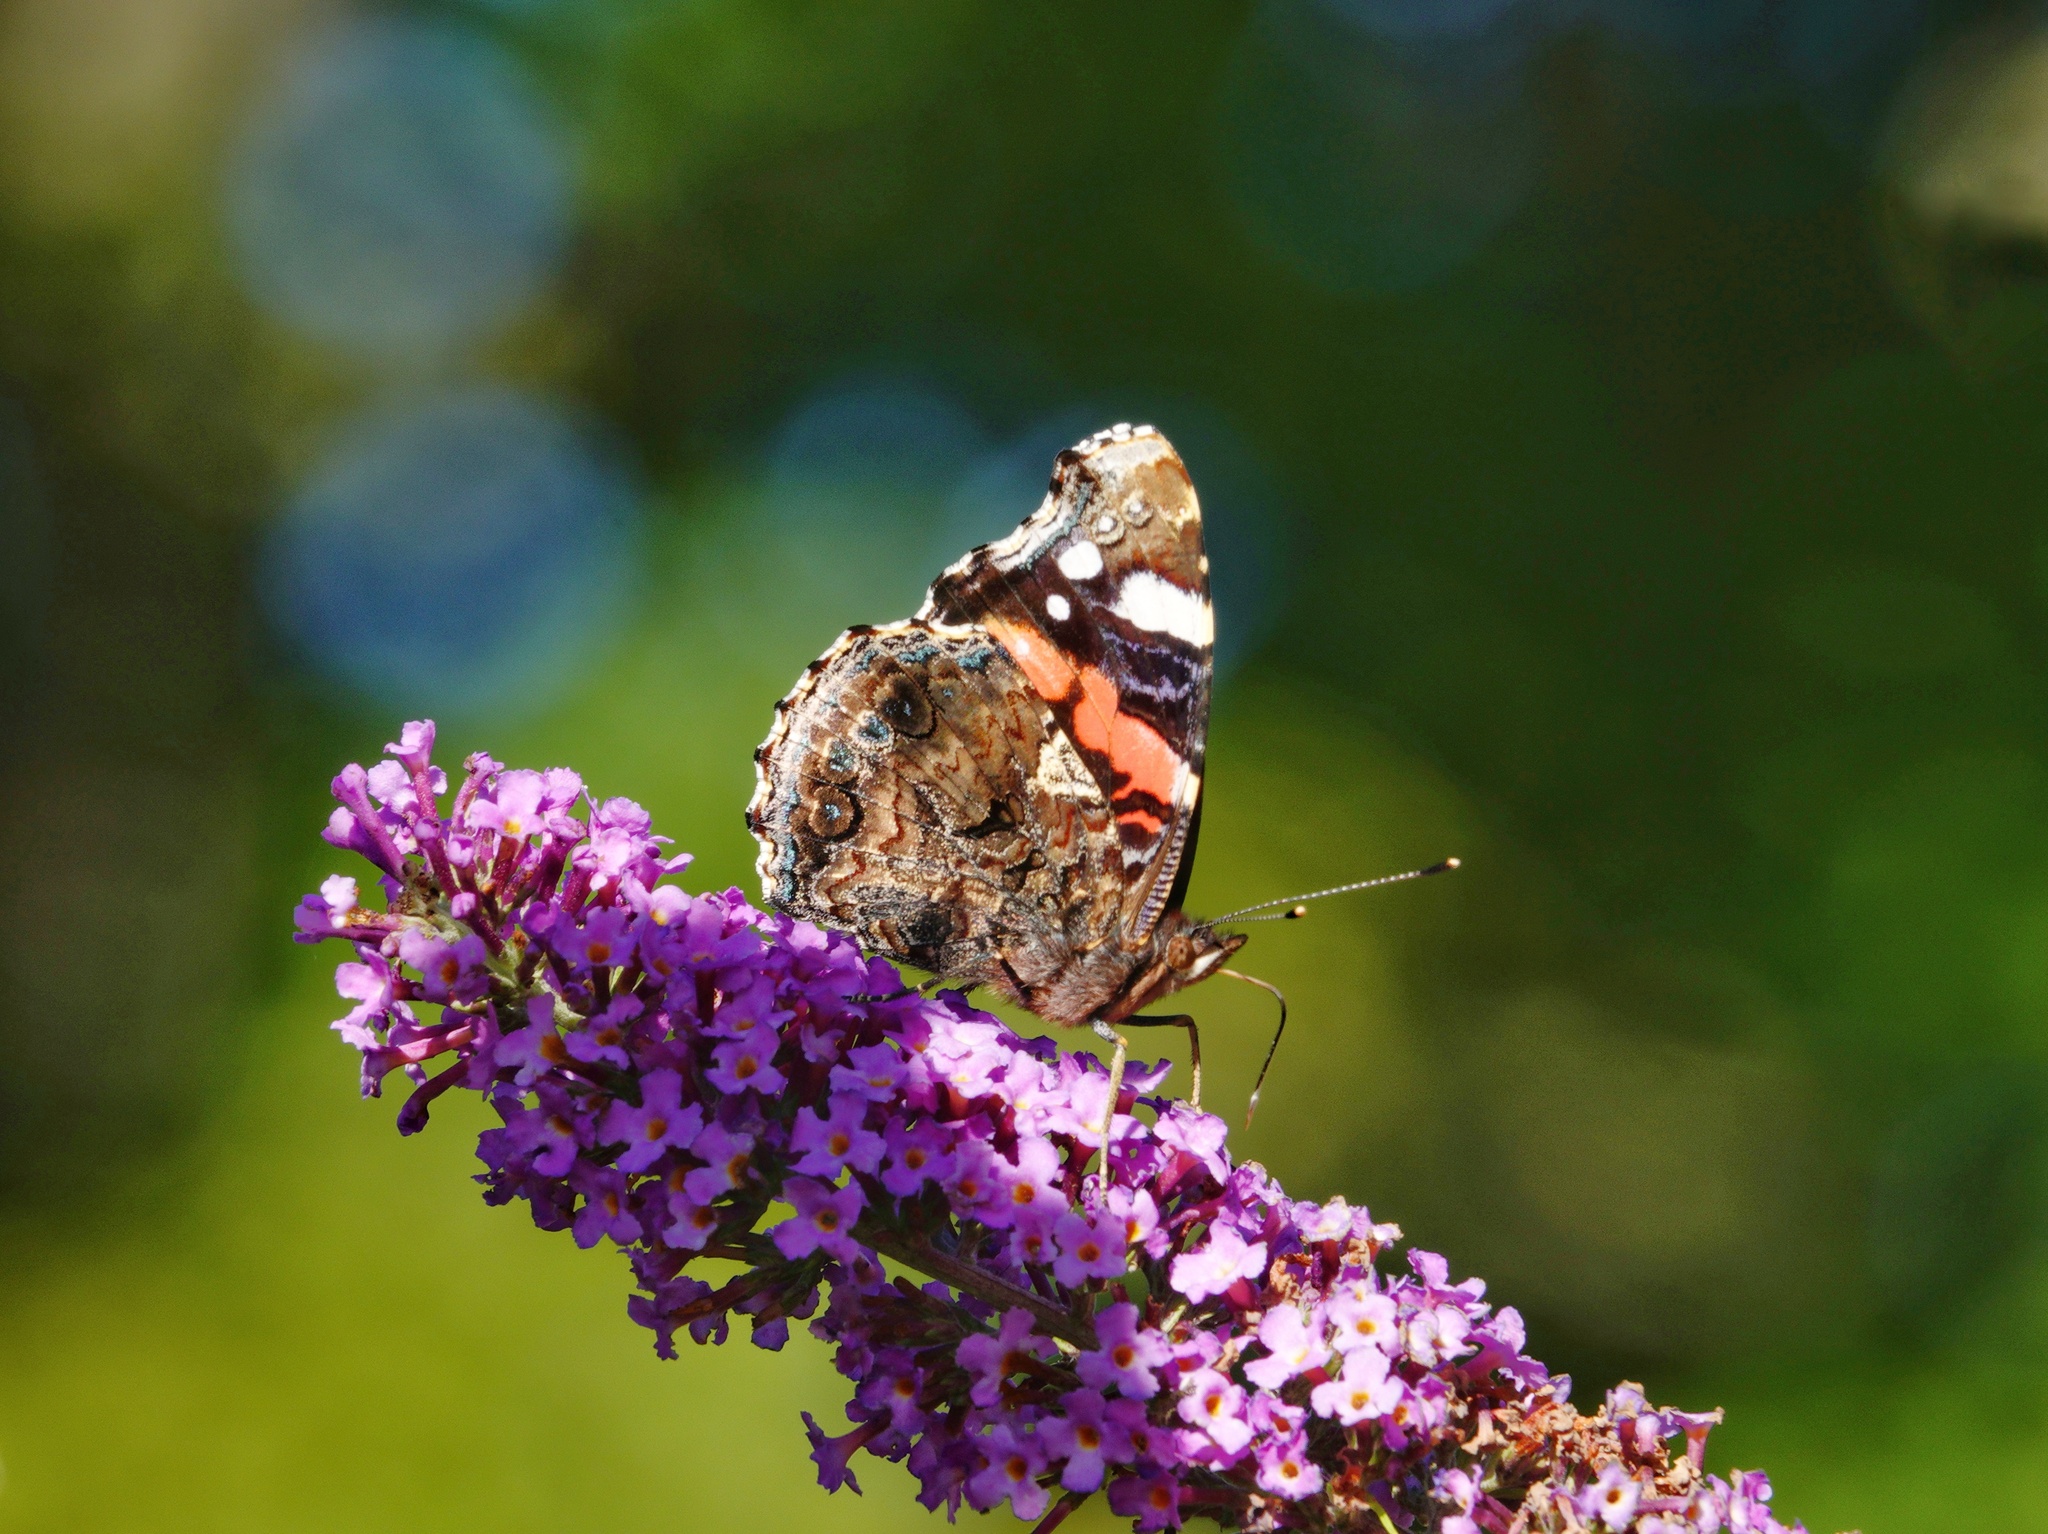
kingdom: Animalia
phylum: Arthropoda
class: Insecta
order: Lepidoptera
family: Nymphalidae
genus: Vanessa
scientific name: Vanessa atalanta
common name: Red admiral
